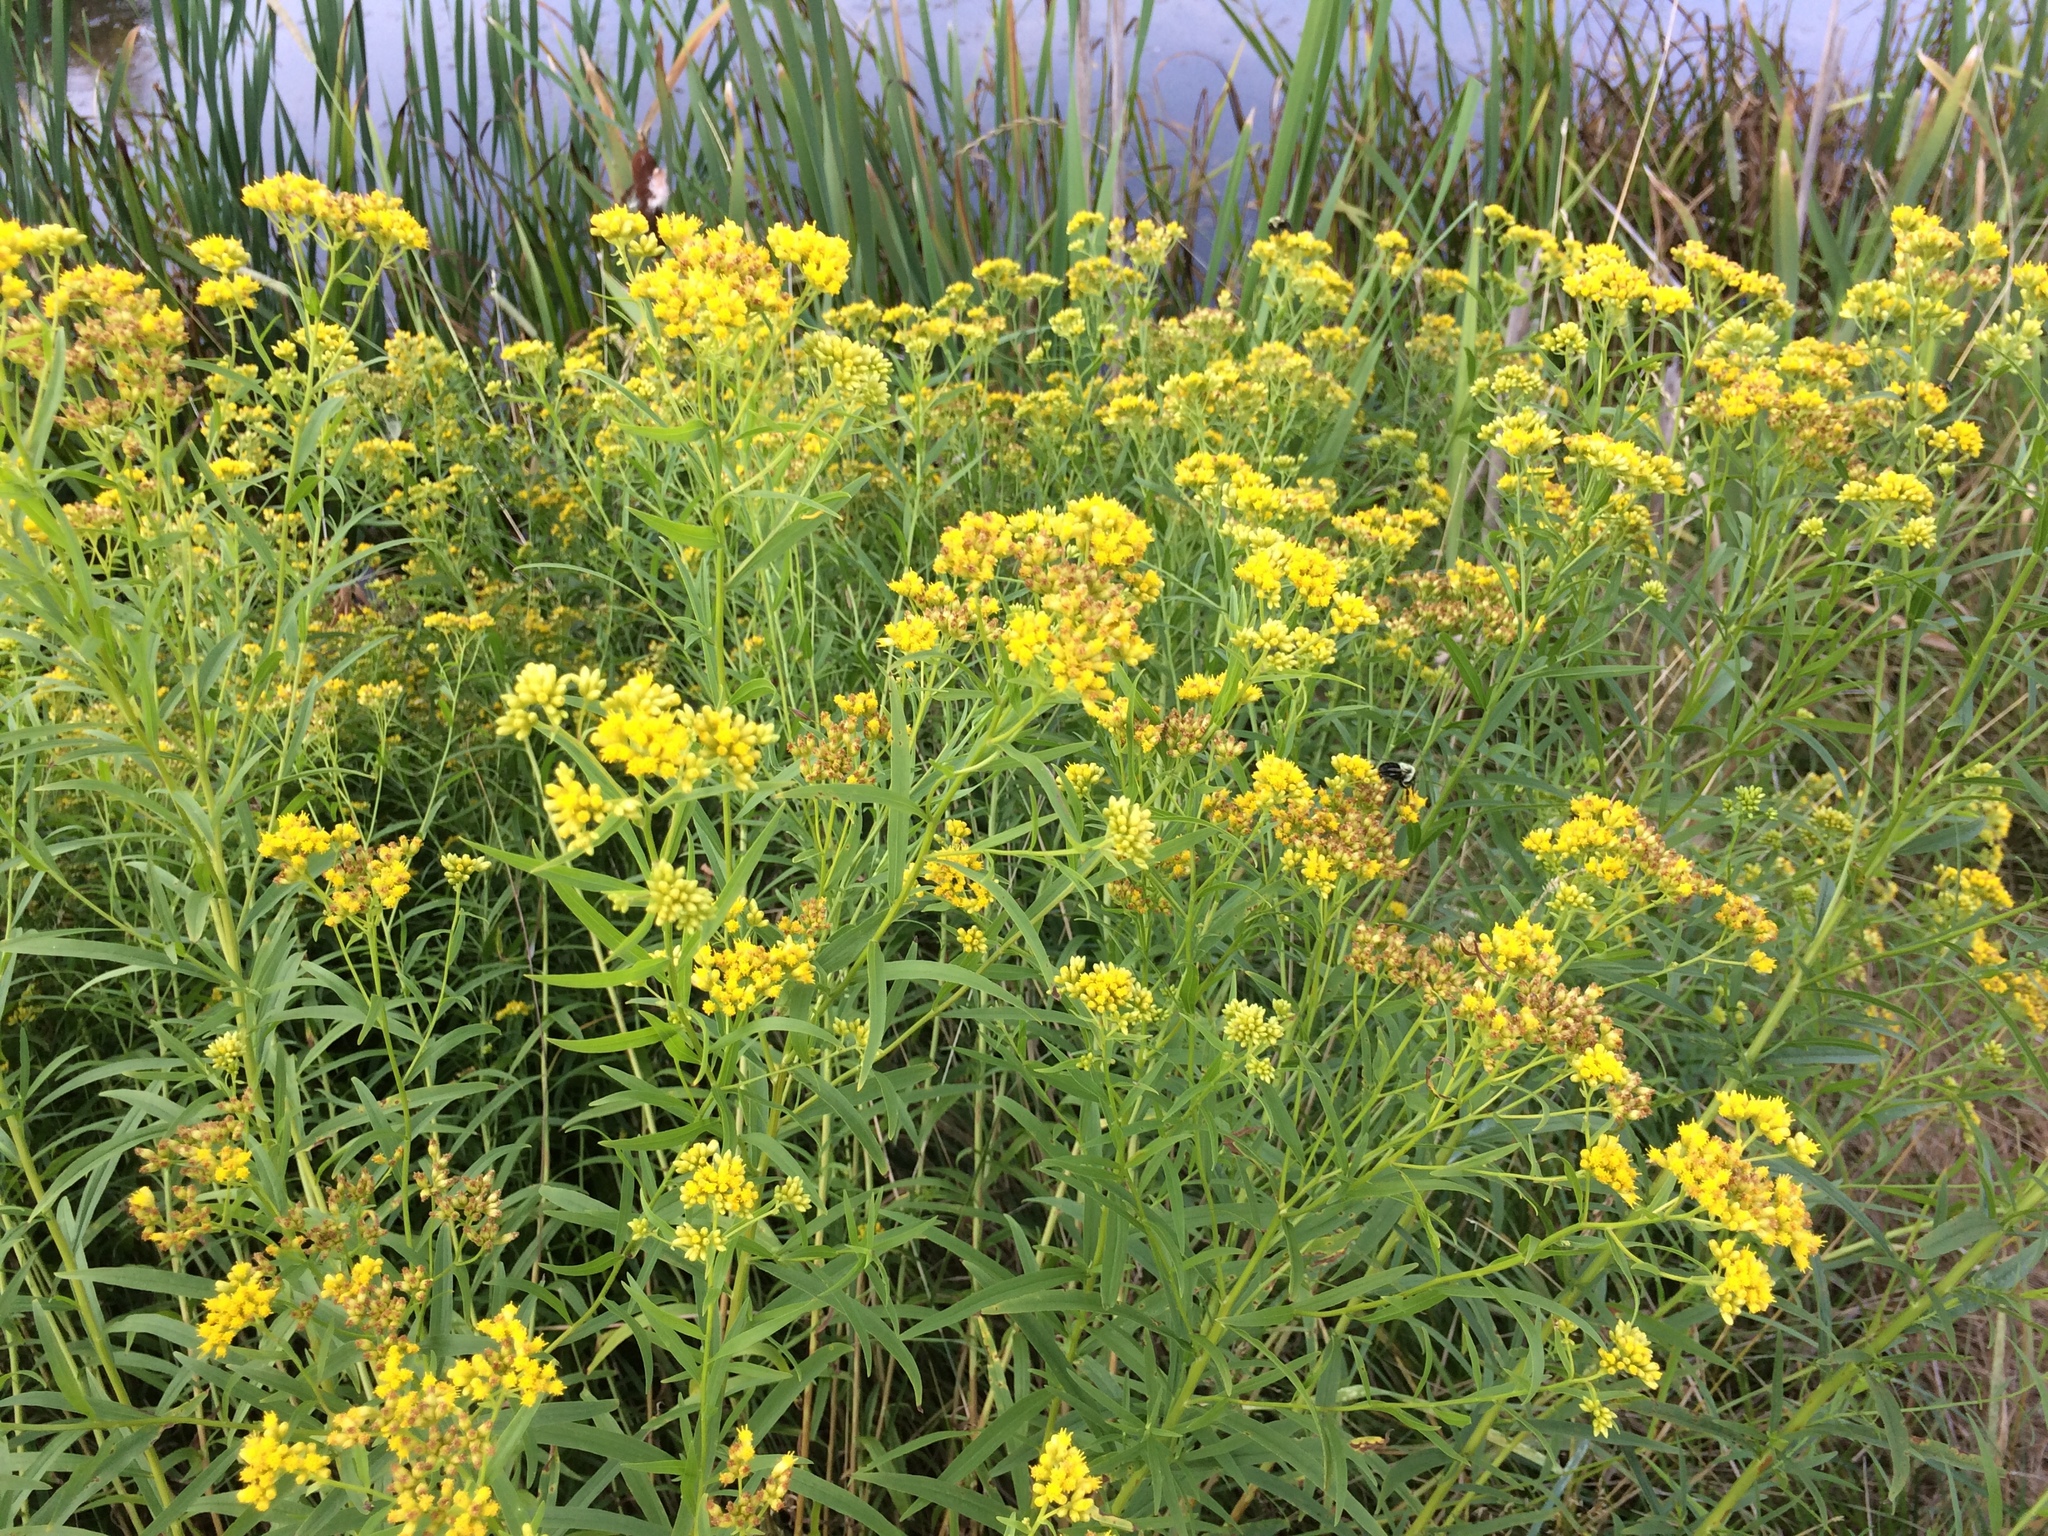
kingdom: Plantae
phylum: Tracheophyta
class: Magnoliopsida
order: Asterales
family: Asteraceae
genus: Euthamia
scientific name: Euthamia graminifolia
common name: Common goldentop
